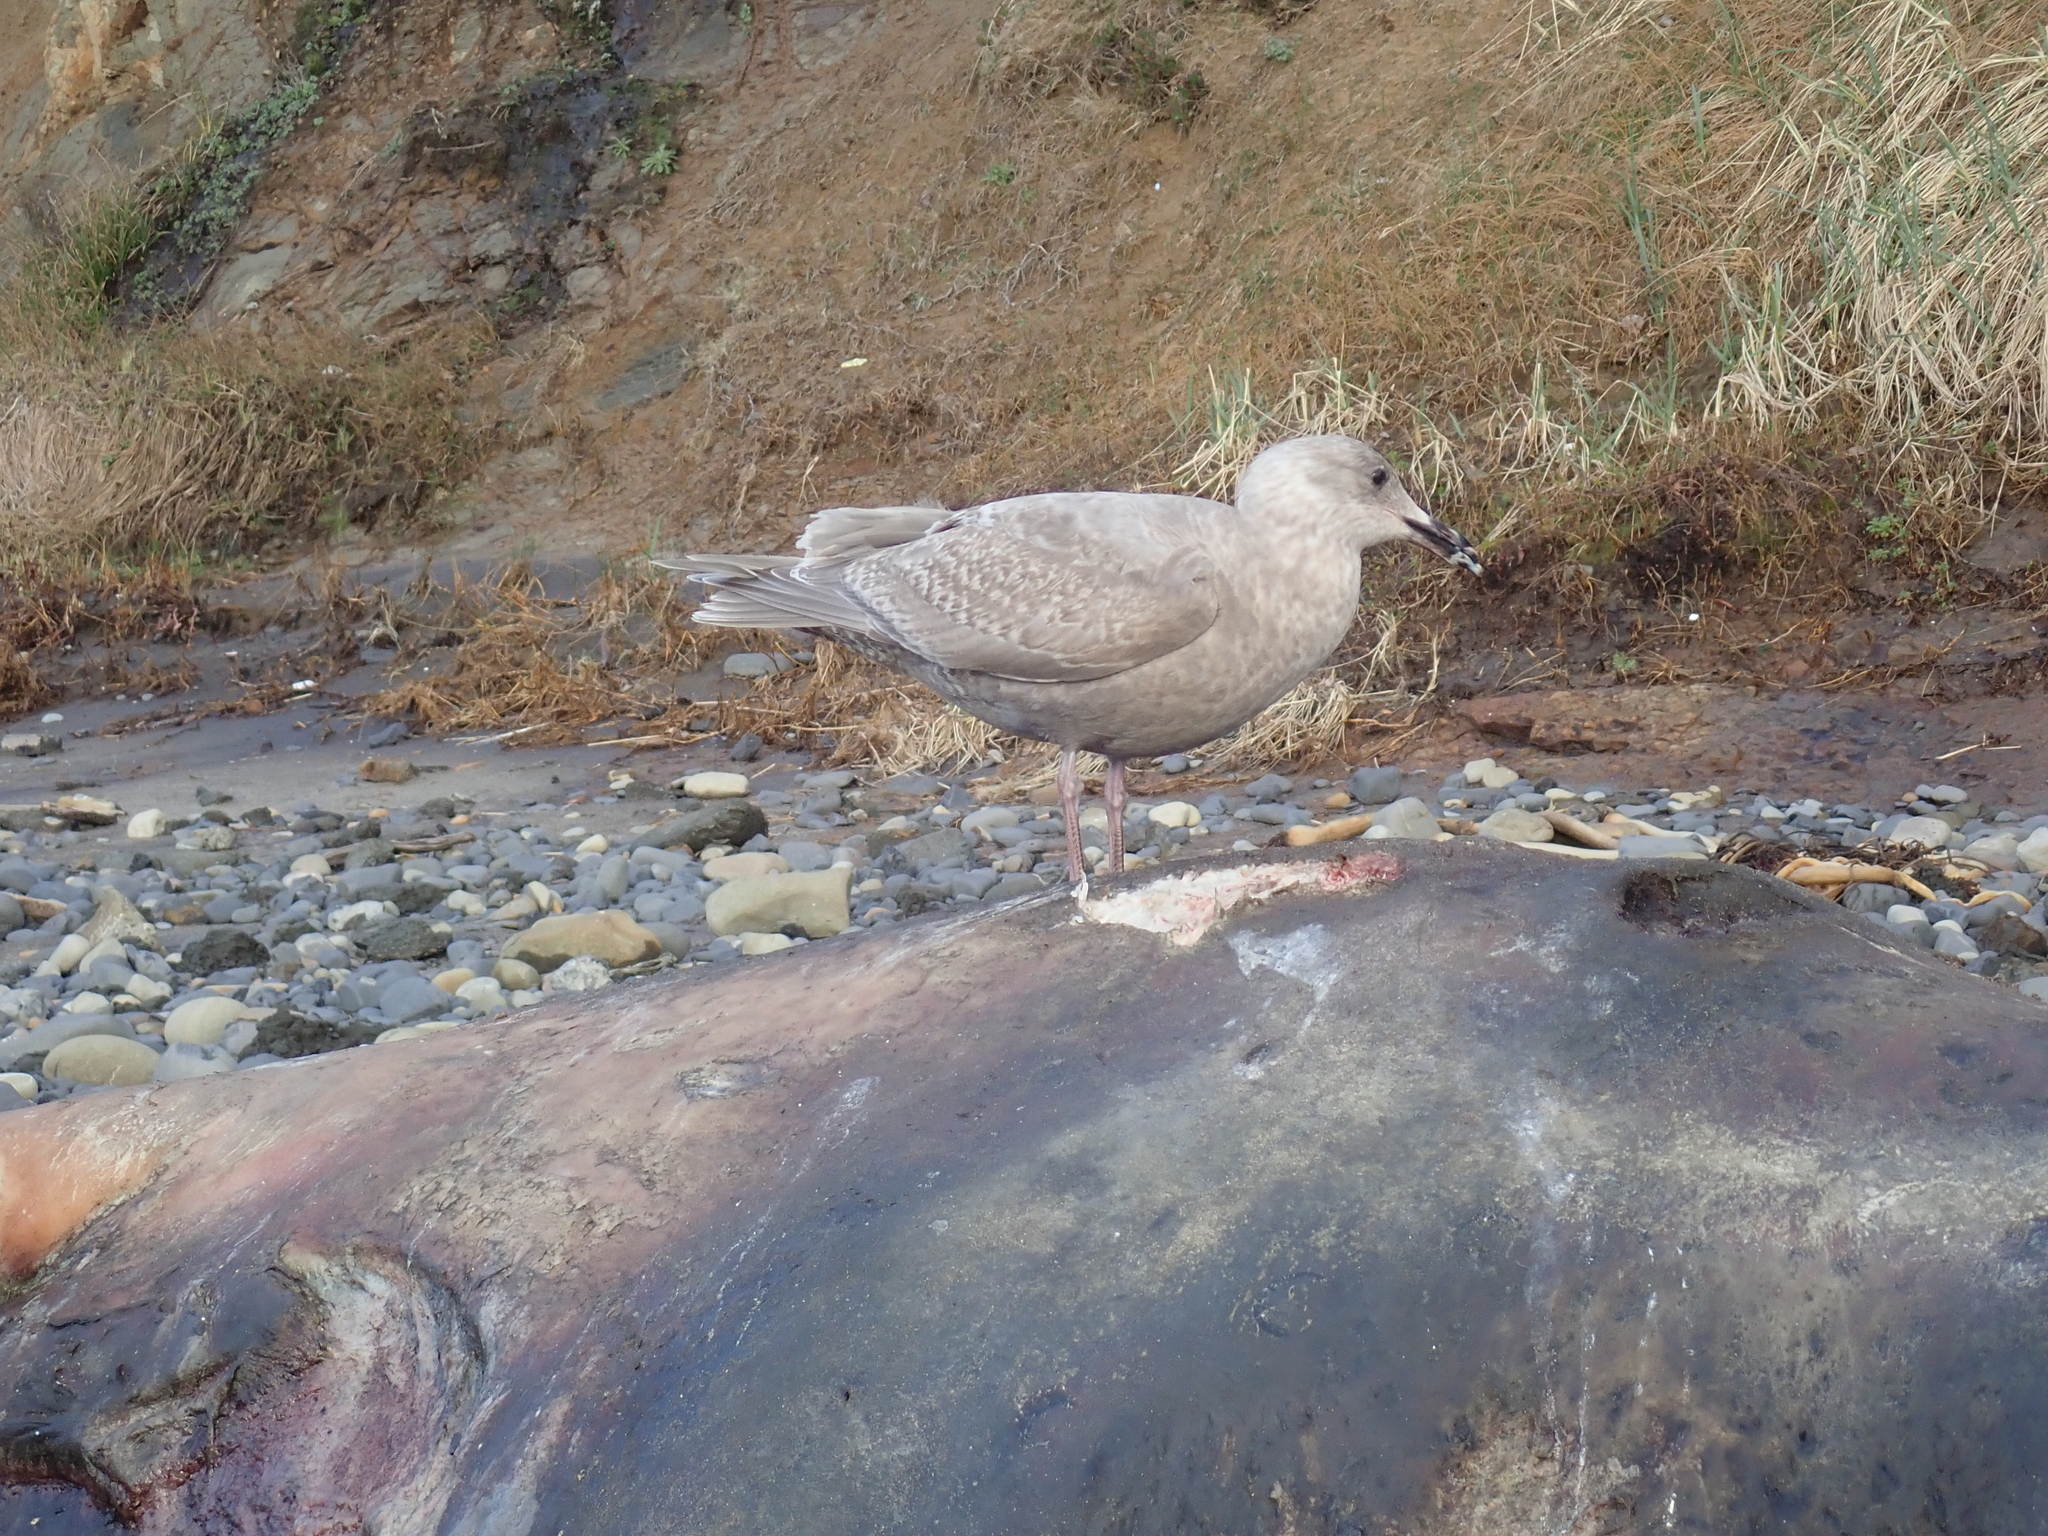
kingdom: Animalia
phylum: Chordata
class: Aves
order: Charadriiformes
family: Laridae
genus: Larus
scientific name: Larus glaucescens
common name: Glaucous-winged gull
